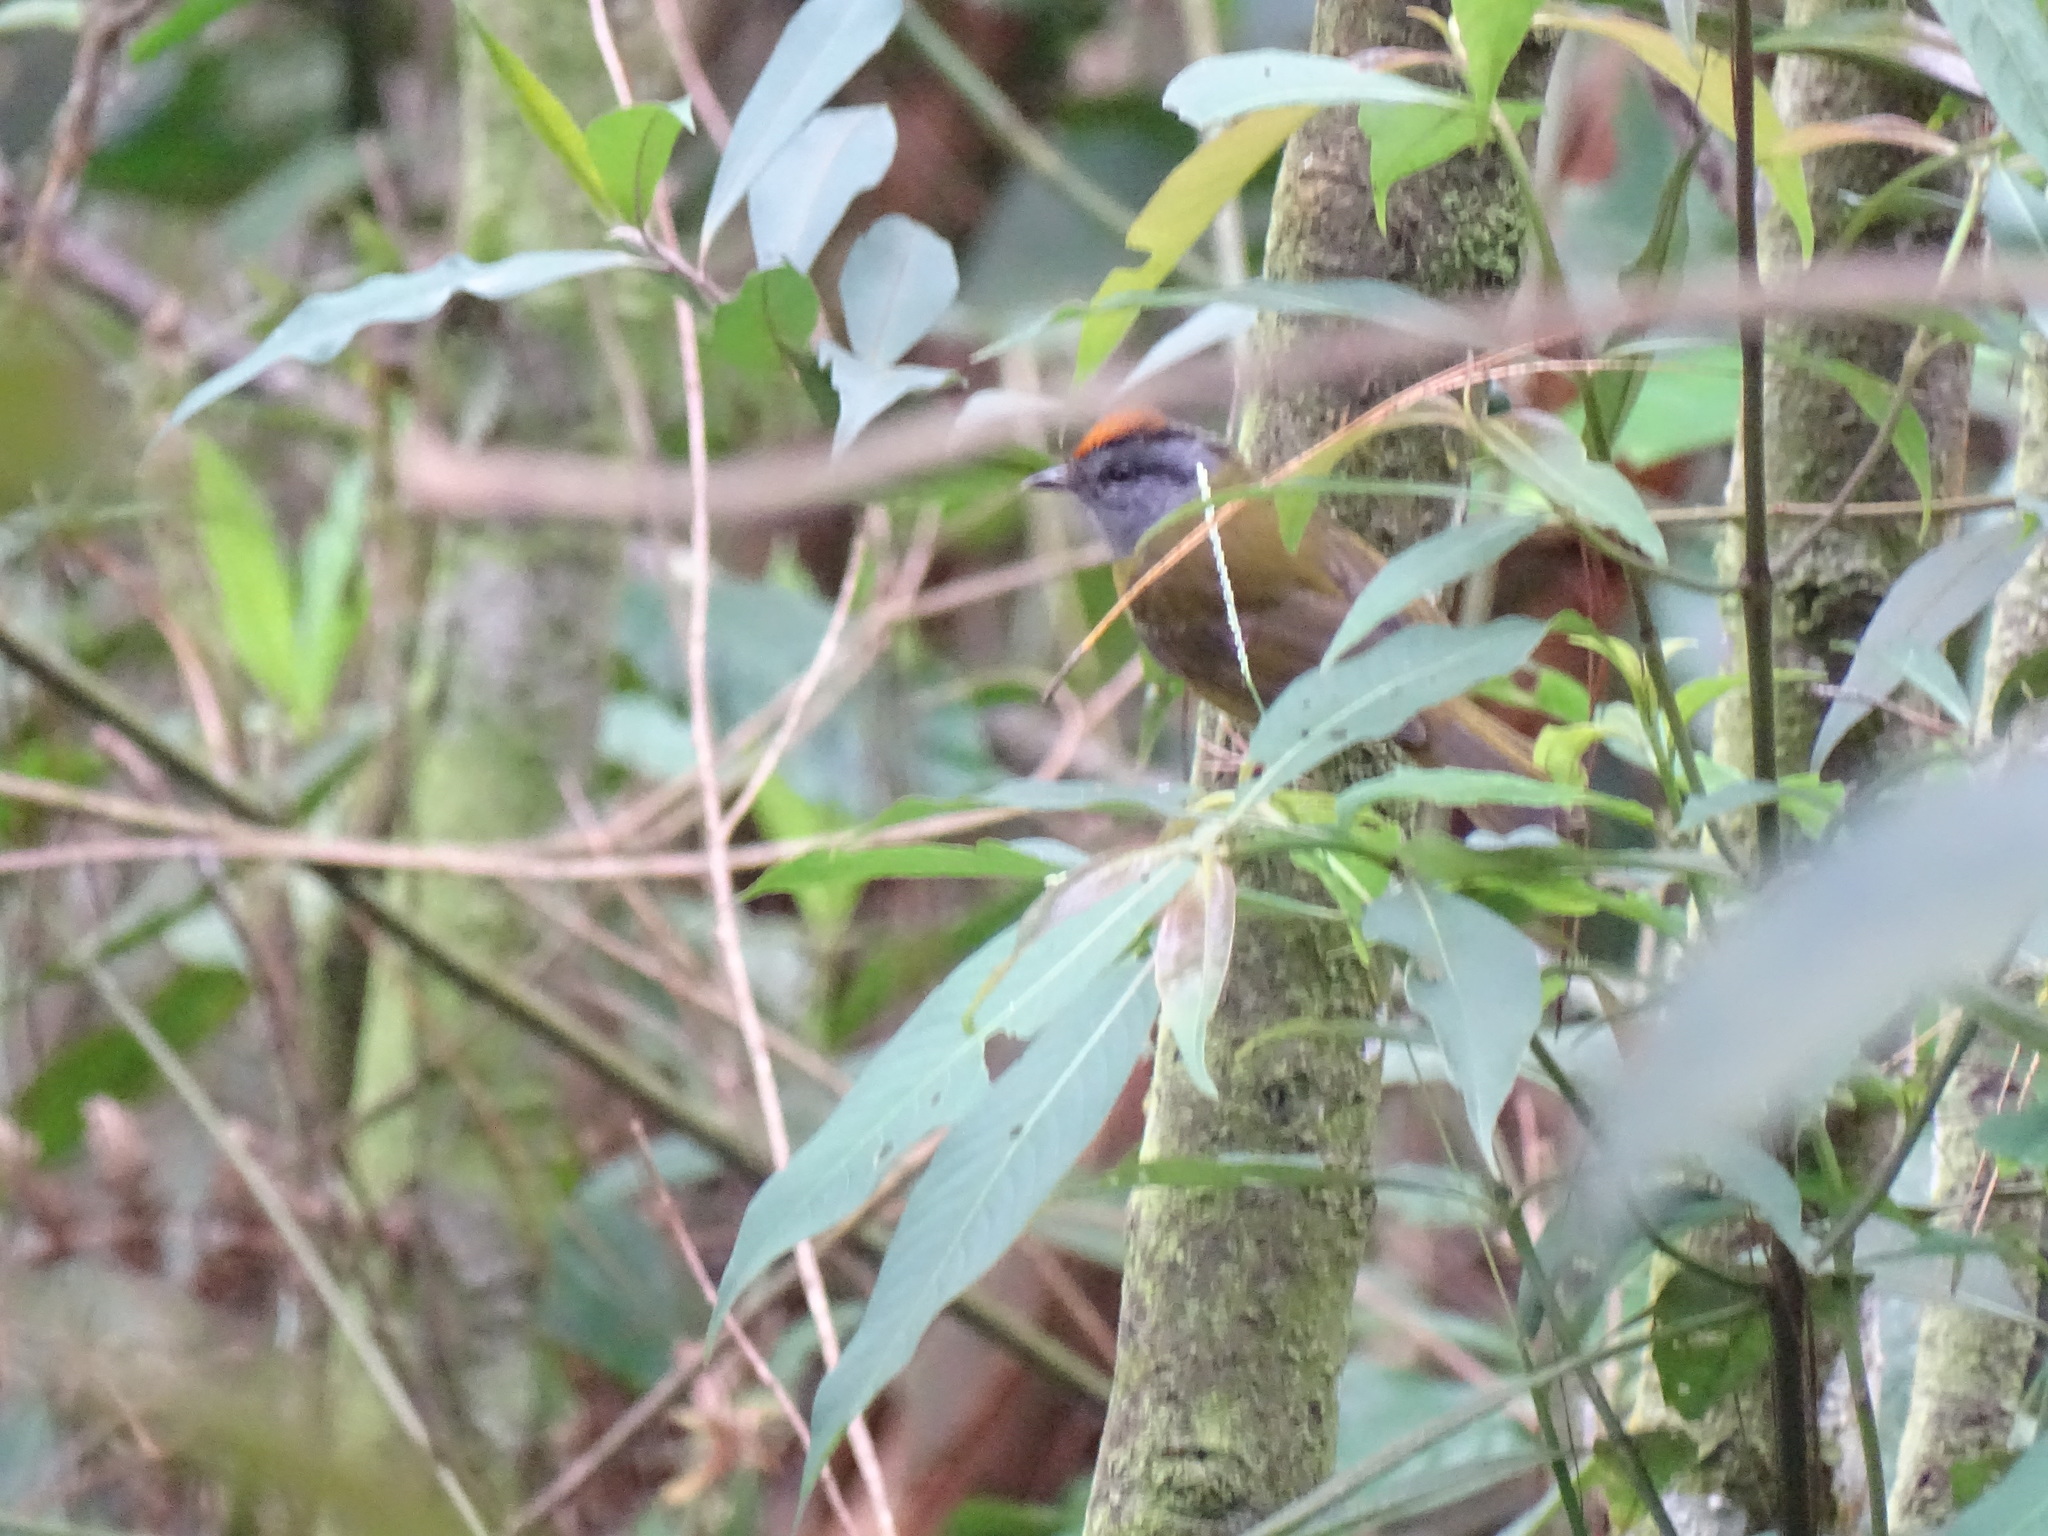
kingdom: Animalia
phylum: Chordata
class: Aves
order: Passeriformes
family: Parulidae
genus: Myiothlypis
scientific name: Myiothlypis coronata
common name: Russet-crowned warbler
